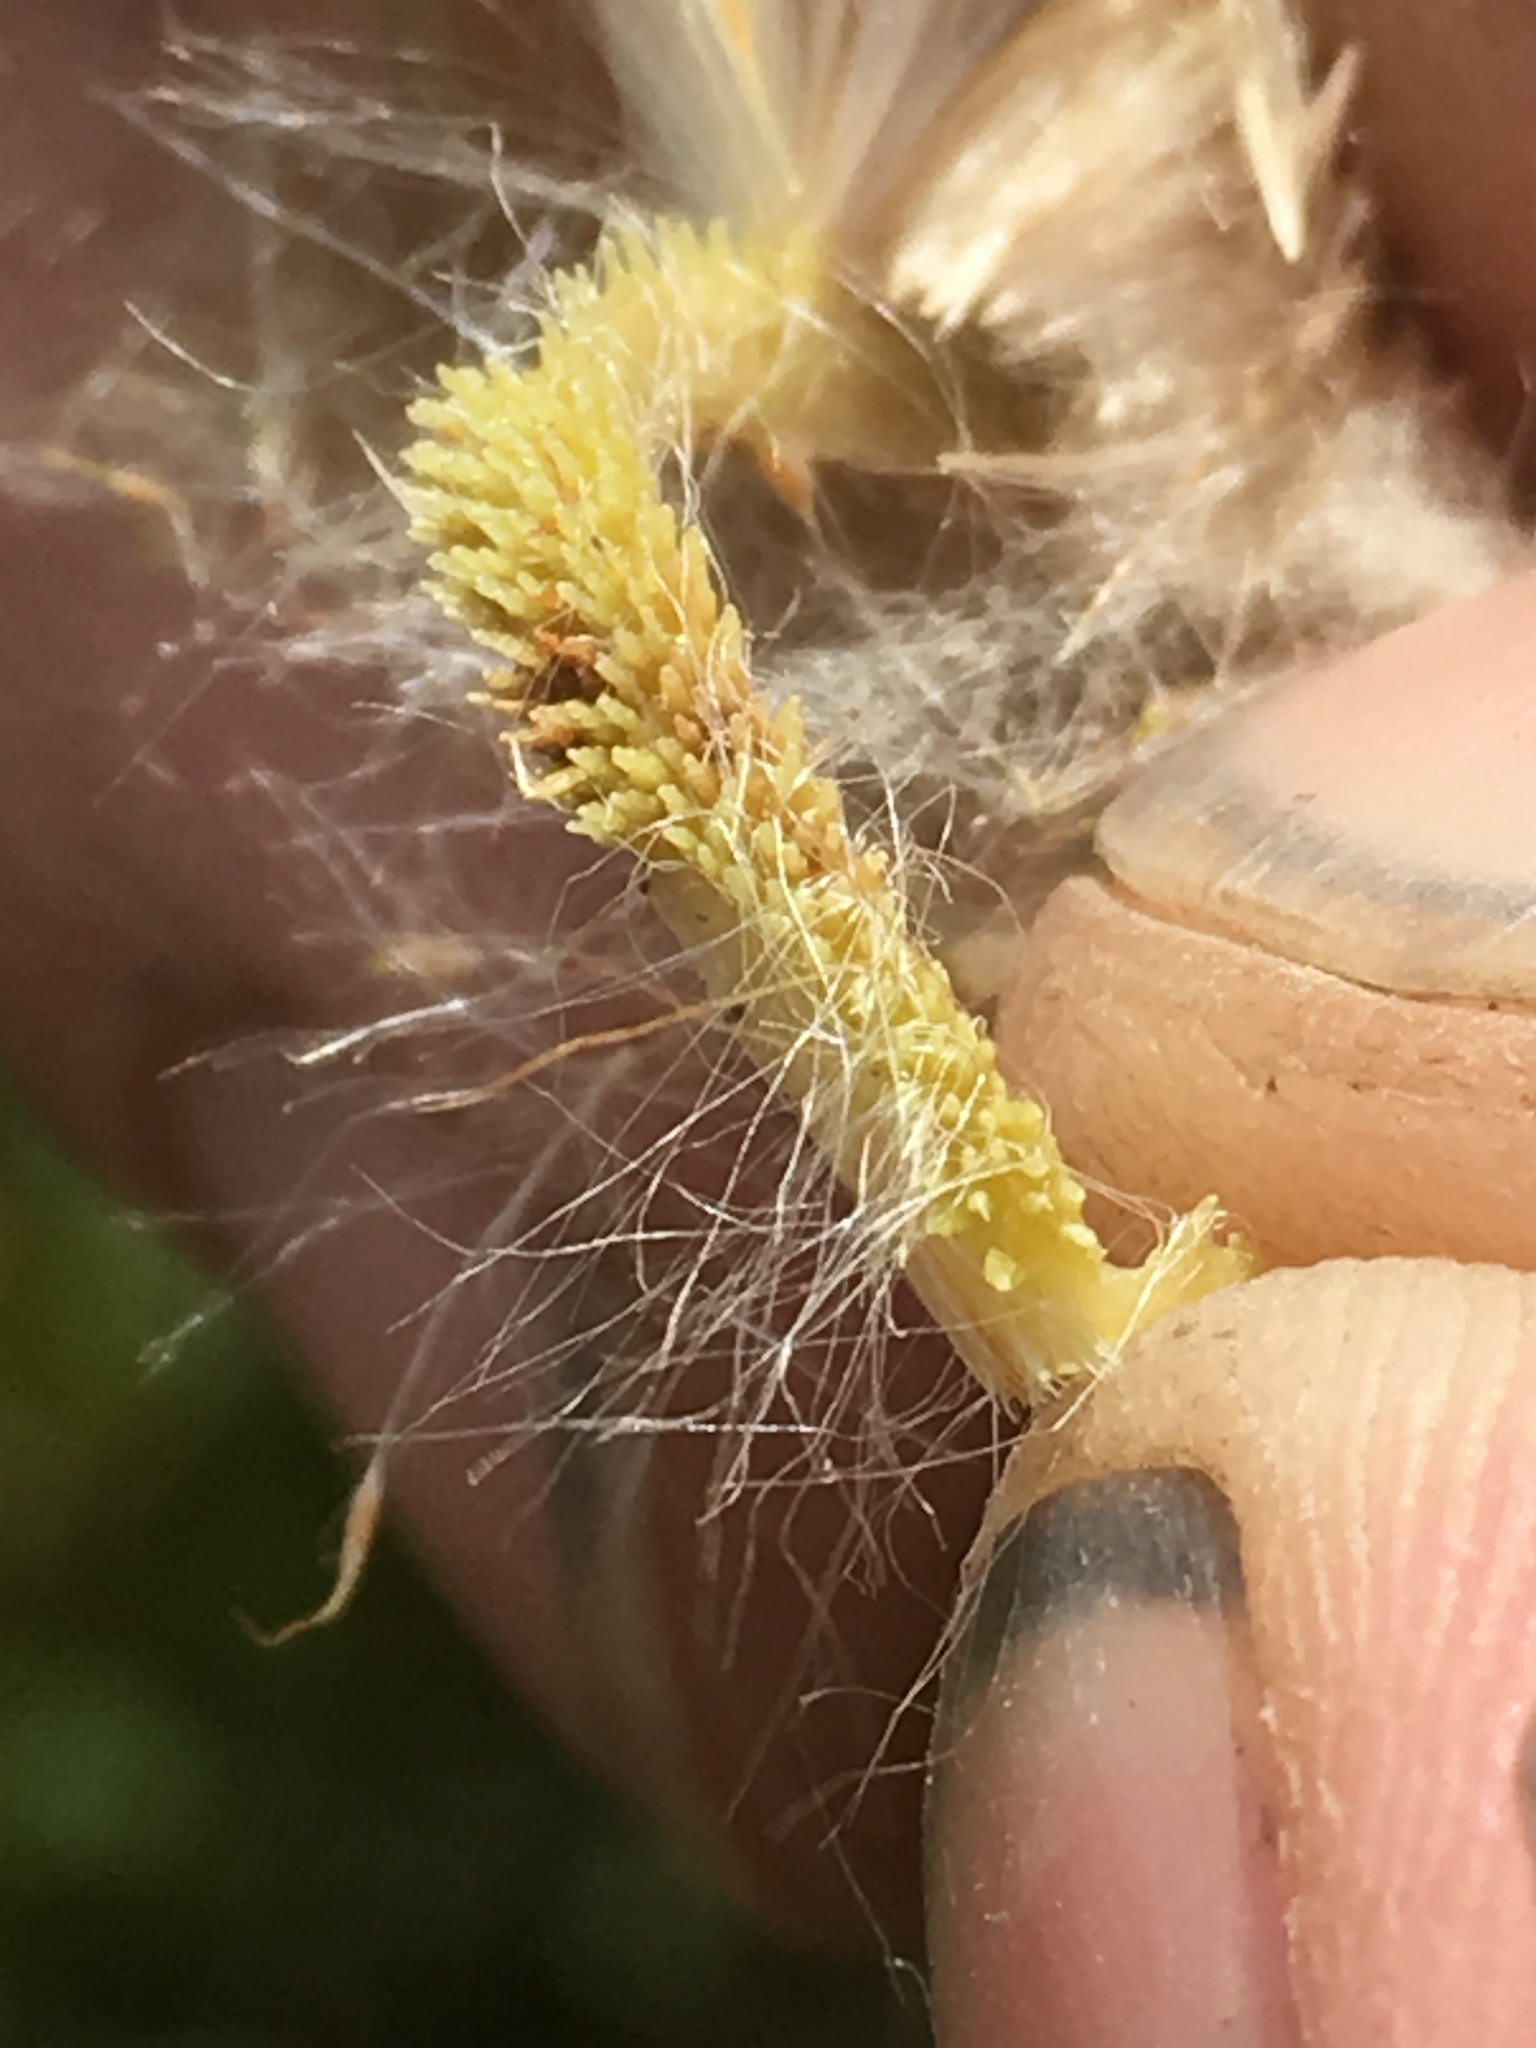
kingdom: Plantae
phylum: Tracheophyta
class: Liliopsida
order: Poales
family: Typhaceae
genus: Typha
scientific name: Typha angustifolia
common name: Lesser bulrush
